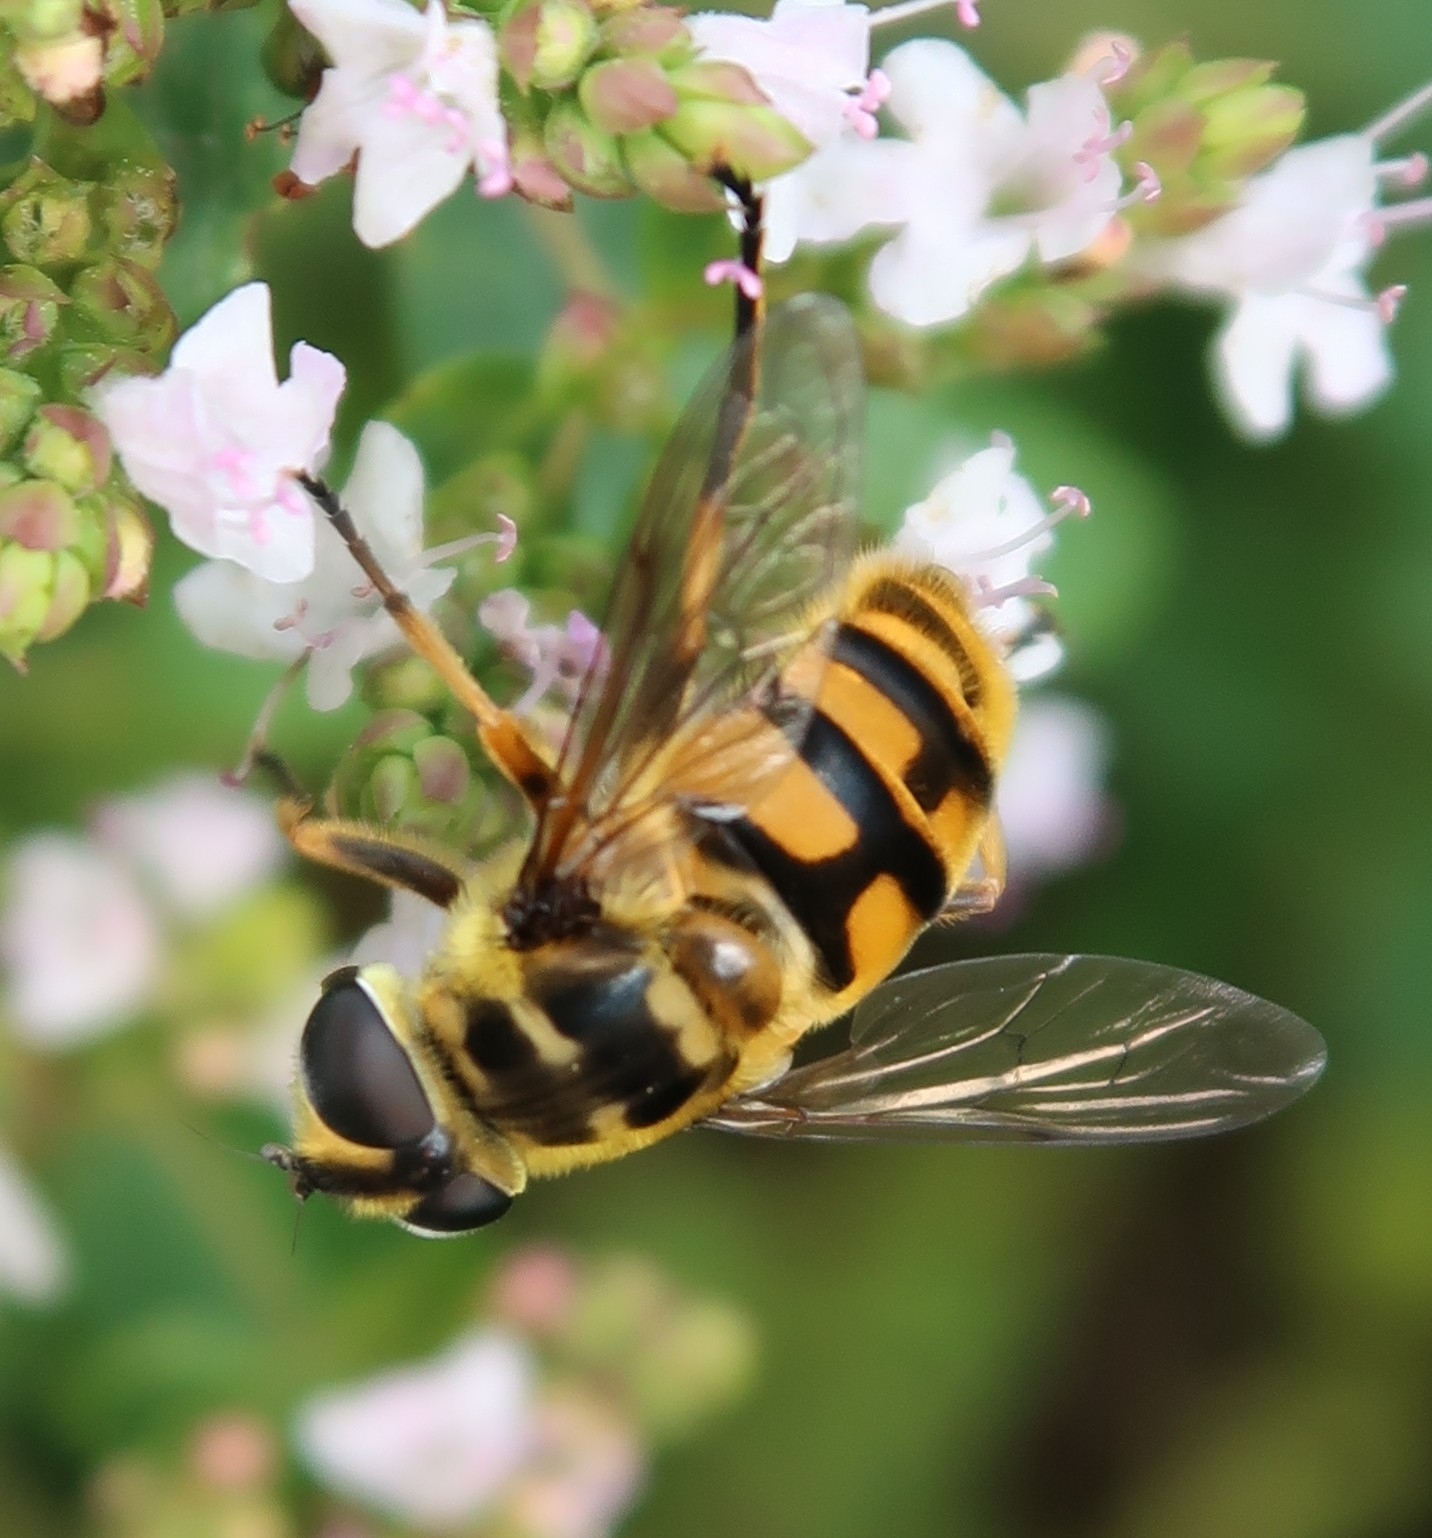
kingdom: Animalia
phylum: Arthropoda
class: Insecta
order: Diptera
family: Syrphidae
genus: Myathropa
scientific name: Myathropa florea
